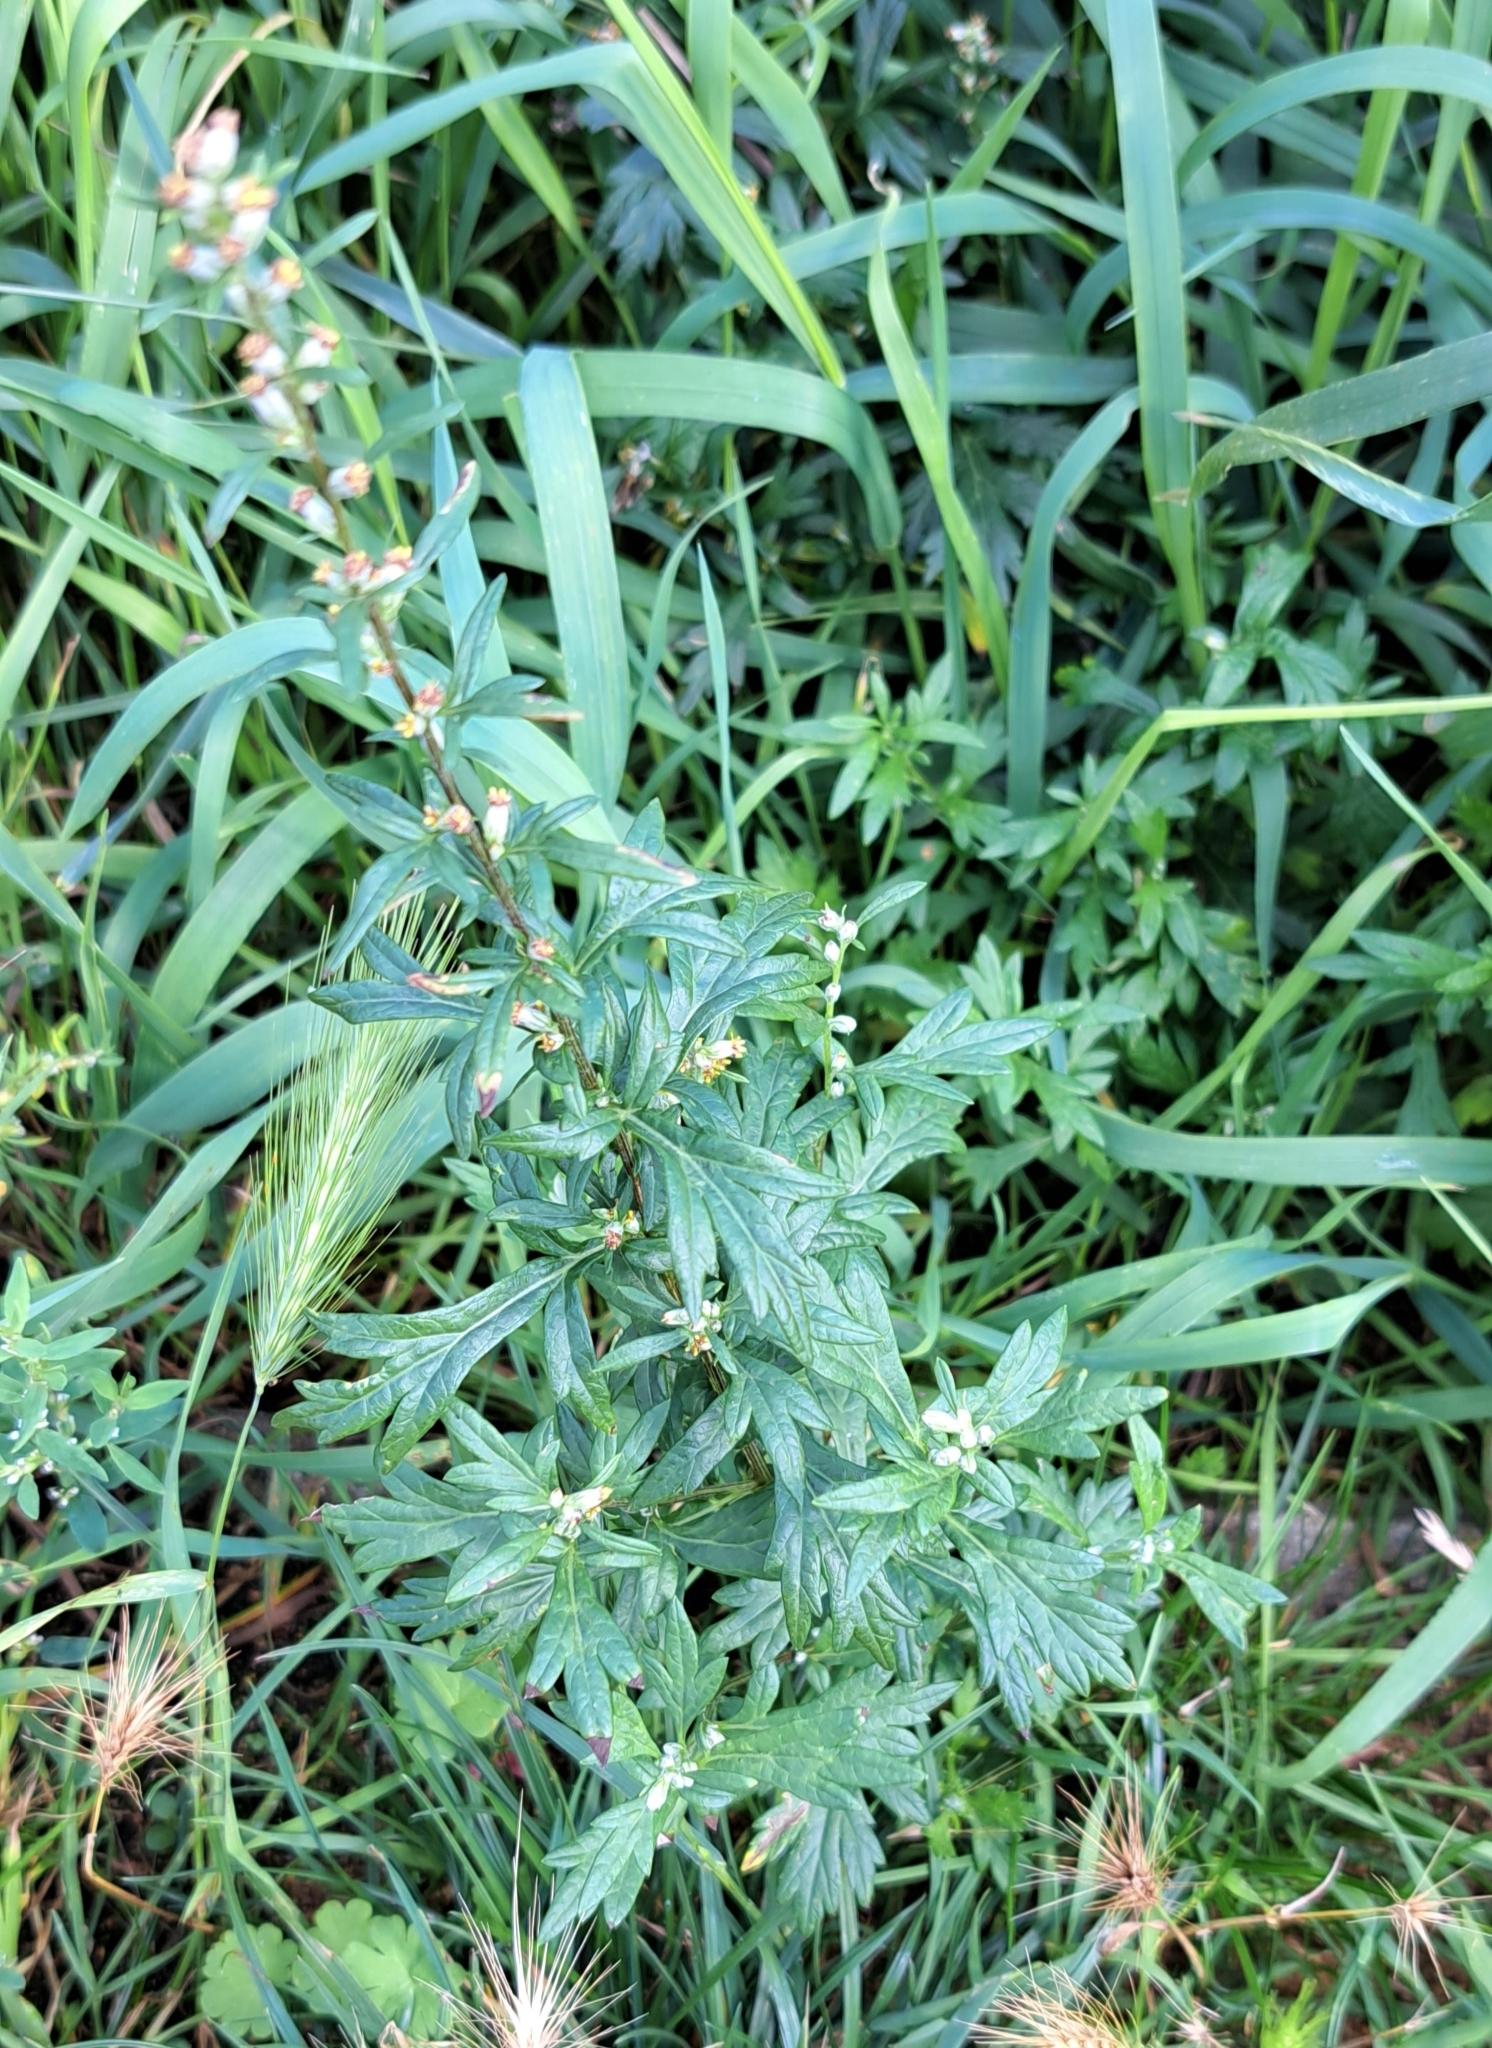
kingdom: Plantae
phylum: Tracheophyta
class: Magnoliopsida
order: Asterales
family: Asteraceae
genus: Artemisia
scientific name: Artemisia vulgaris
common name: Mugwort
